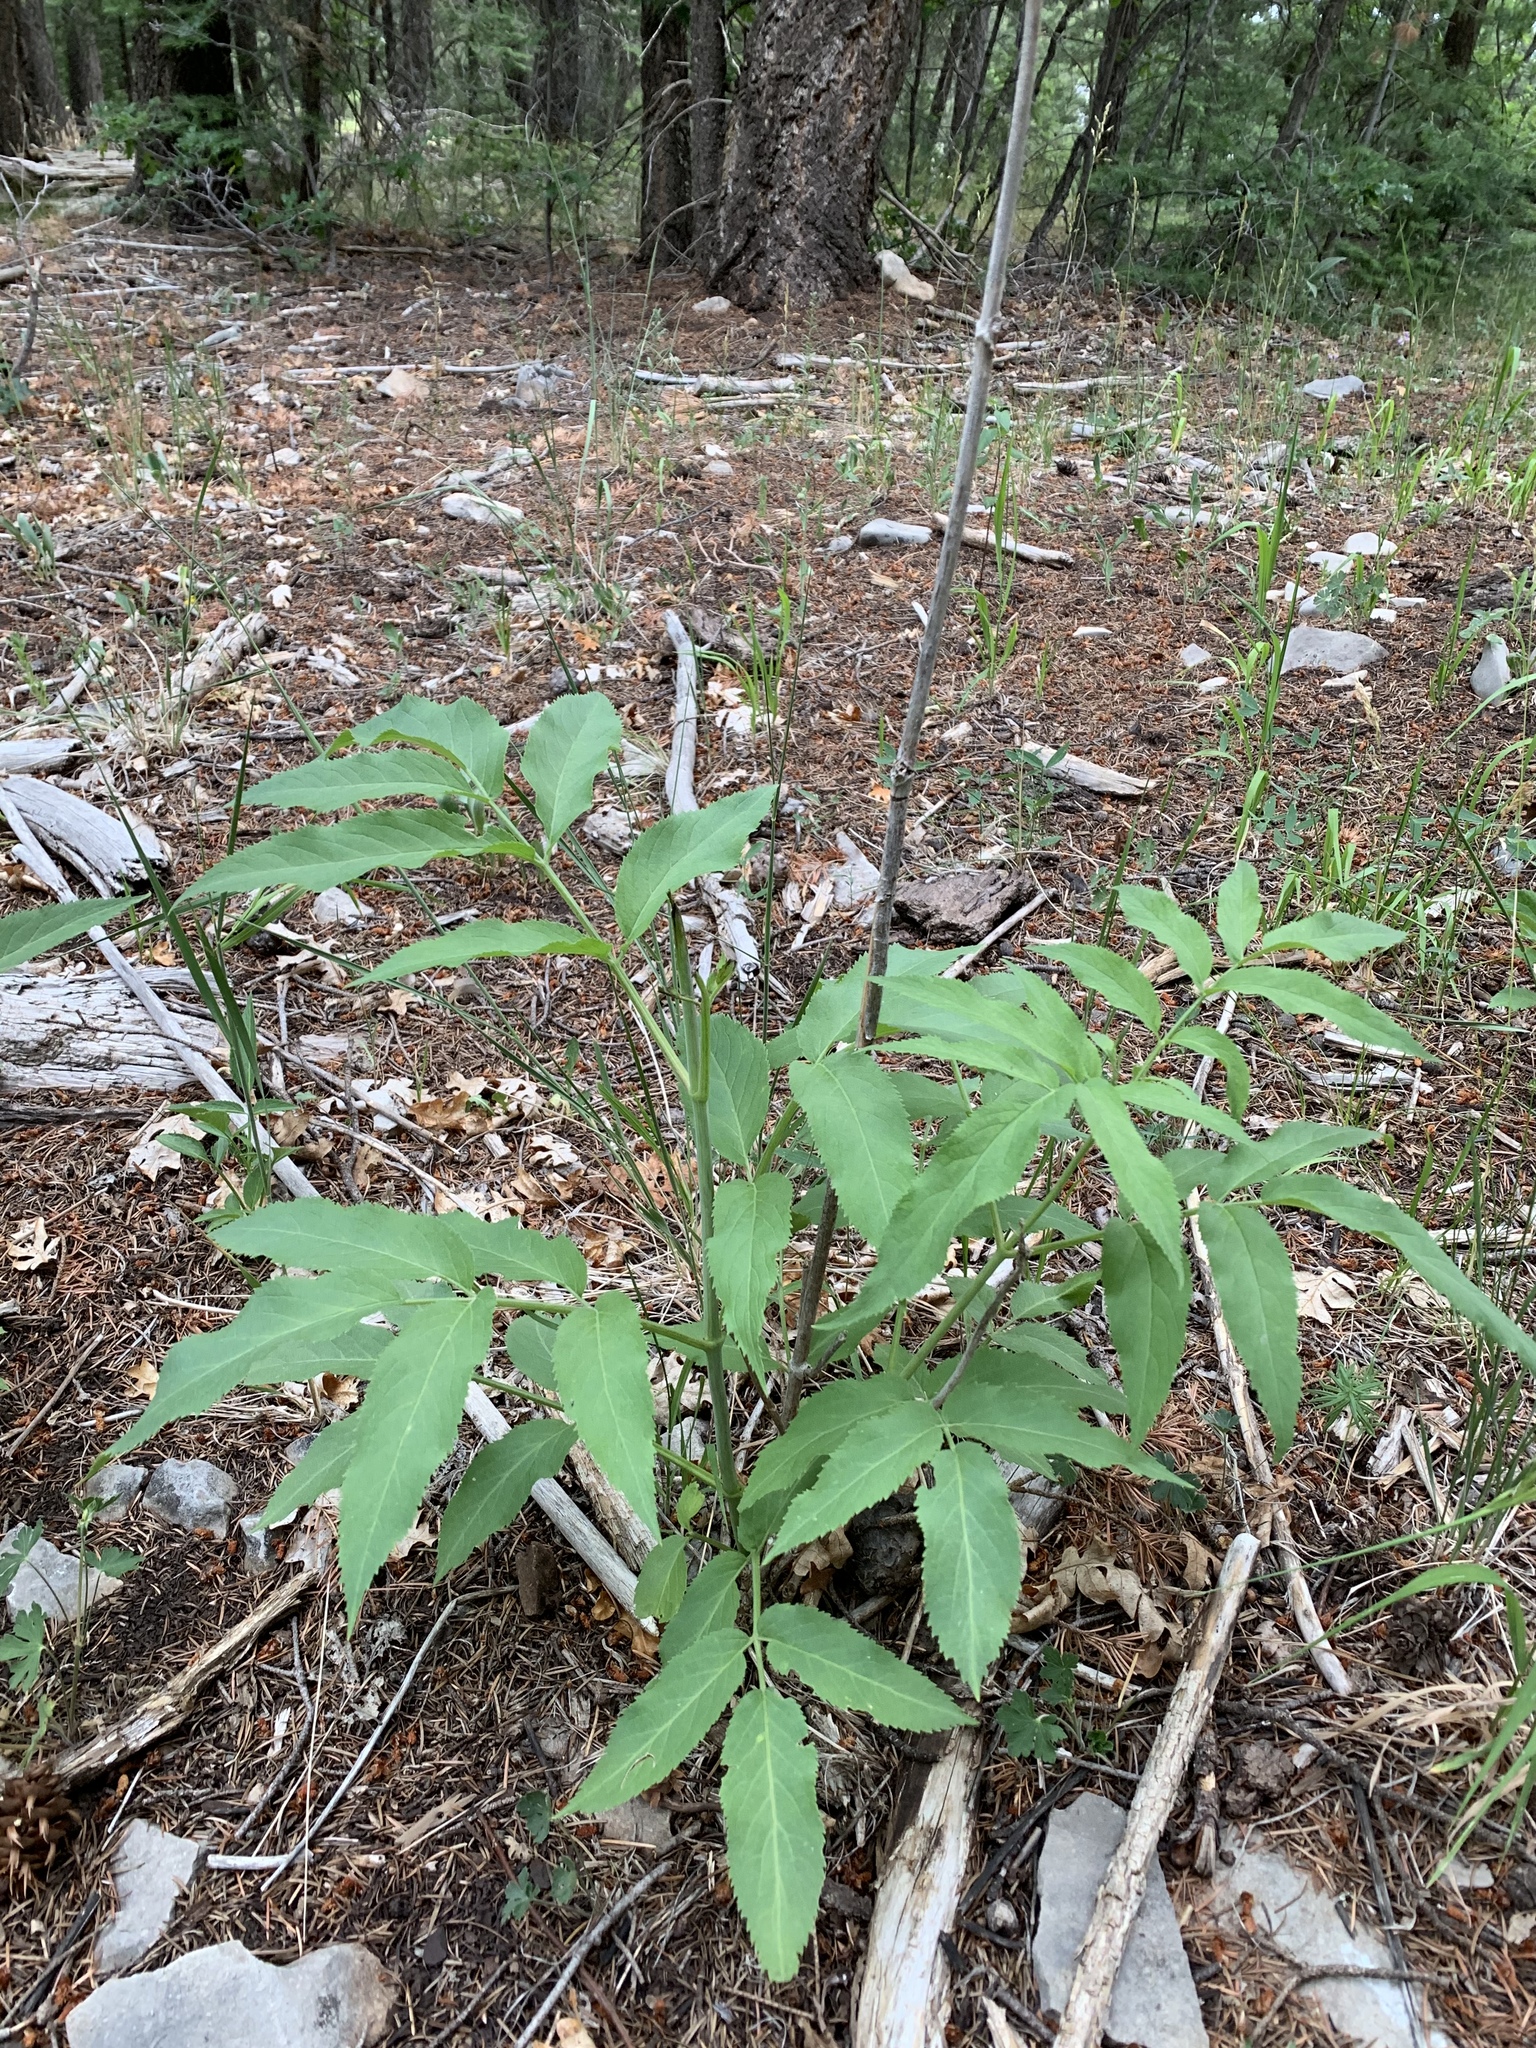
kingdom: Plantae
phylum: Tracheophyta
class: Magnoliopsida
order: Dipsacales
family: Viburnaceae
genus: Sambucus
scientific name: Sambucus cerulea
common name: Blue elder
